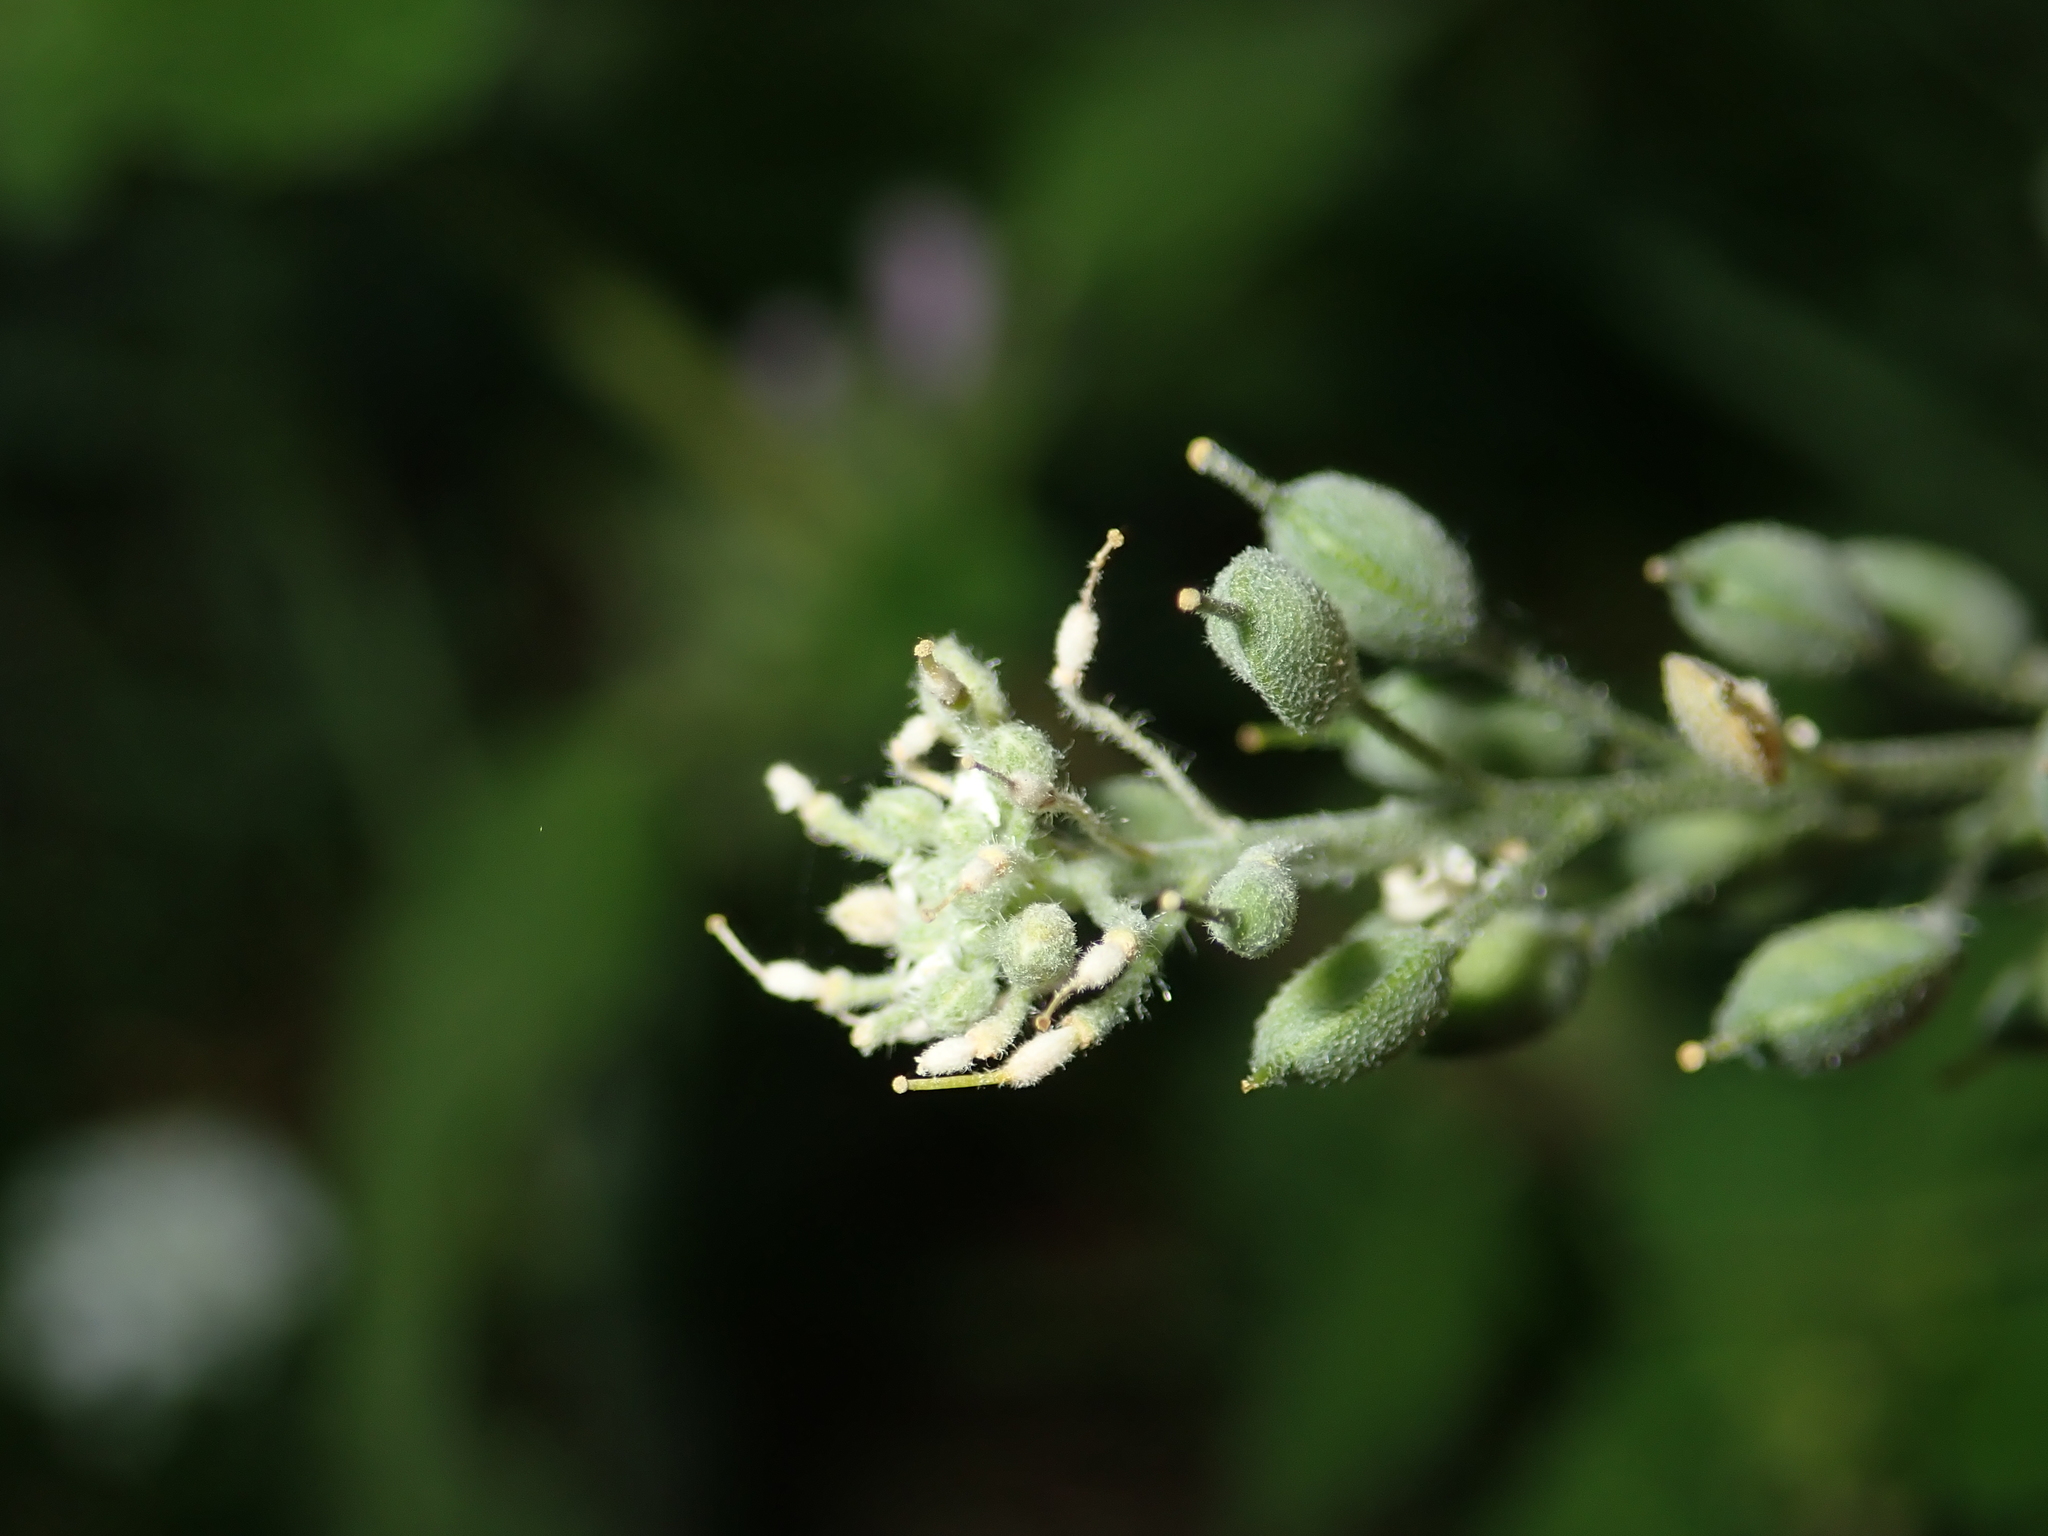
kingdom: Plantae
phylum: Tracheophyta
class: Magnoliopsida
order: Brassicales
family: Brassicaceae
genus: Berteroa
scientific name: Berteroa incana
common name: Hoary alison
